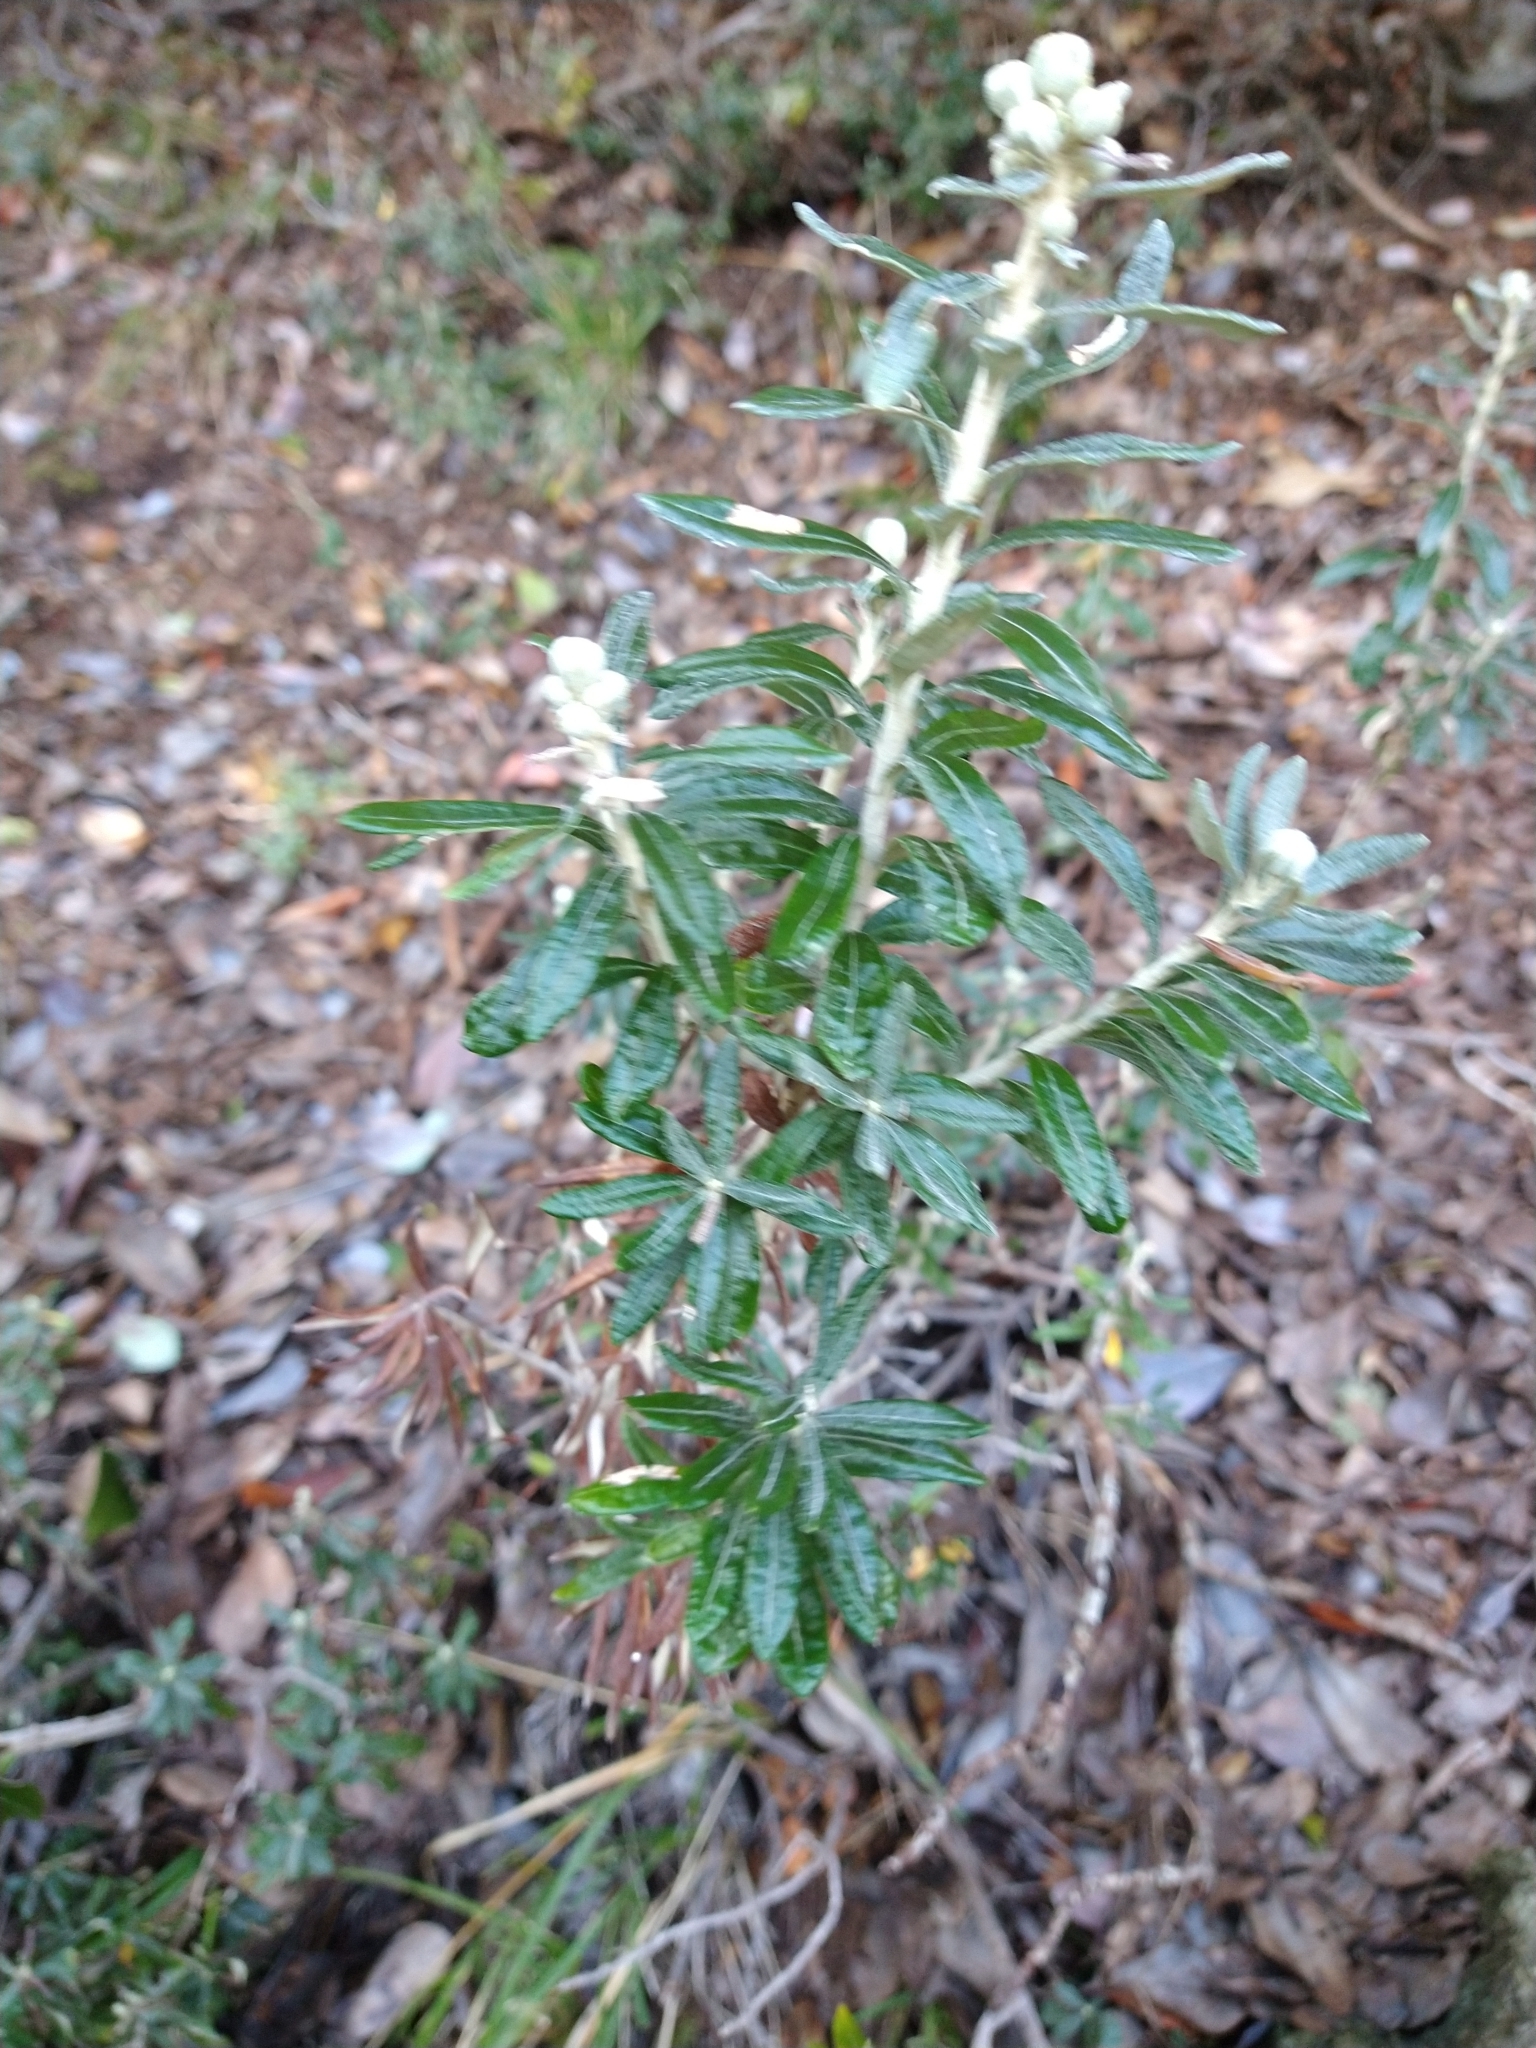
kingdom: Plantae
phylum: Tracheophyta
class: Magnoliopsida
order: Asterales
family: Asteraceae
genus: Chiliotrichum
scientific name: Chiliotrichum diffusum
